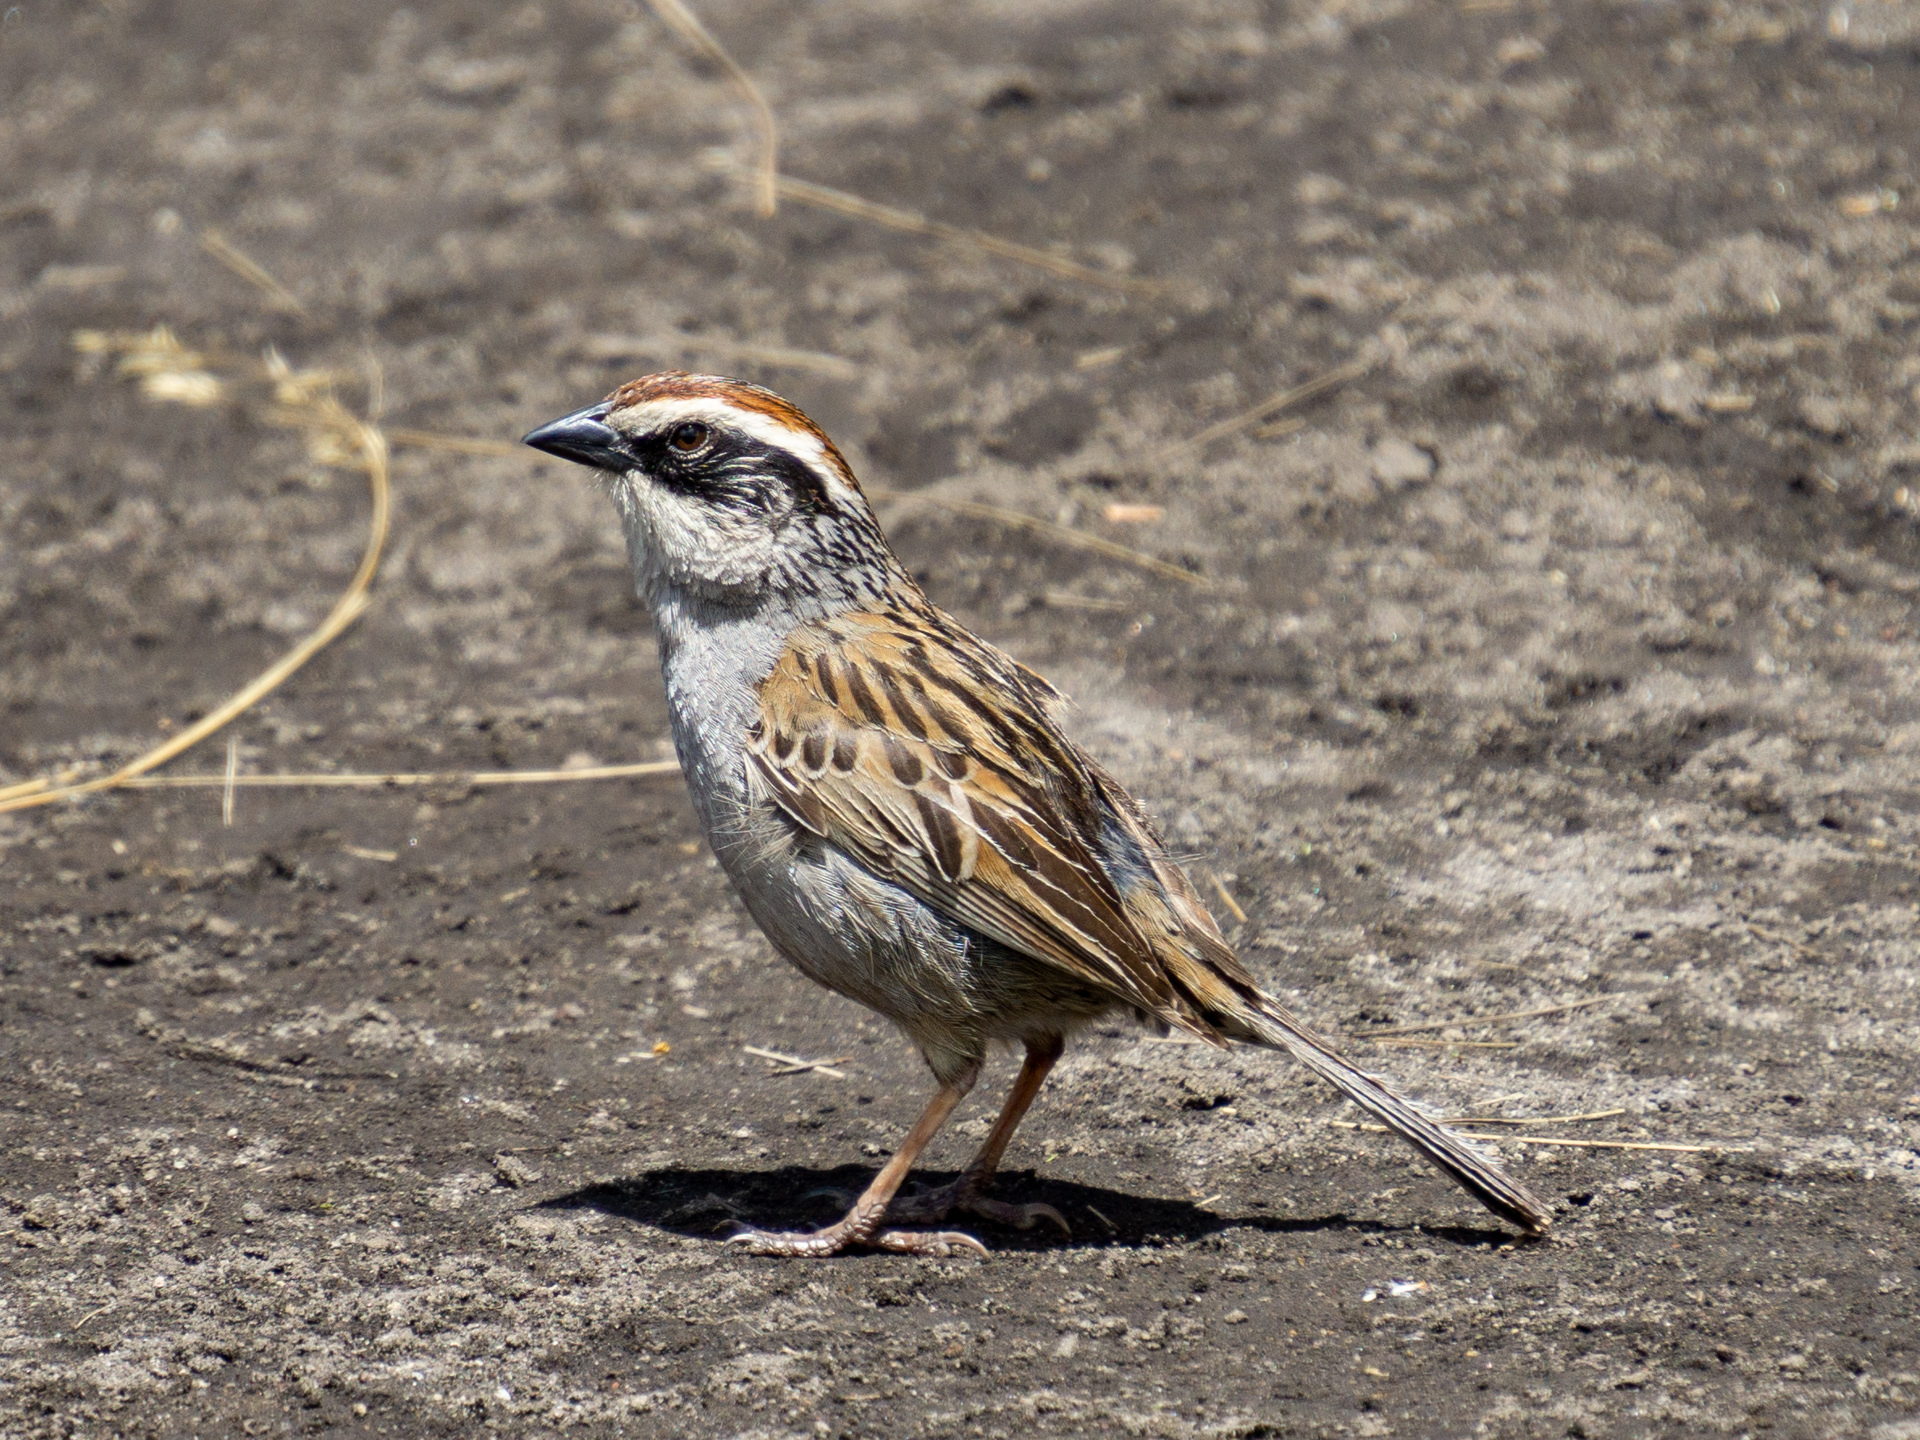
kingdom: Animalia
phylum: Chordata
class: Aves
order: Passeriformes
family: Passerellidae
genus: Oriturus
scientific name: Oriturus superciliosus
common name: Striped sparrow
